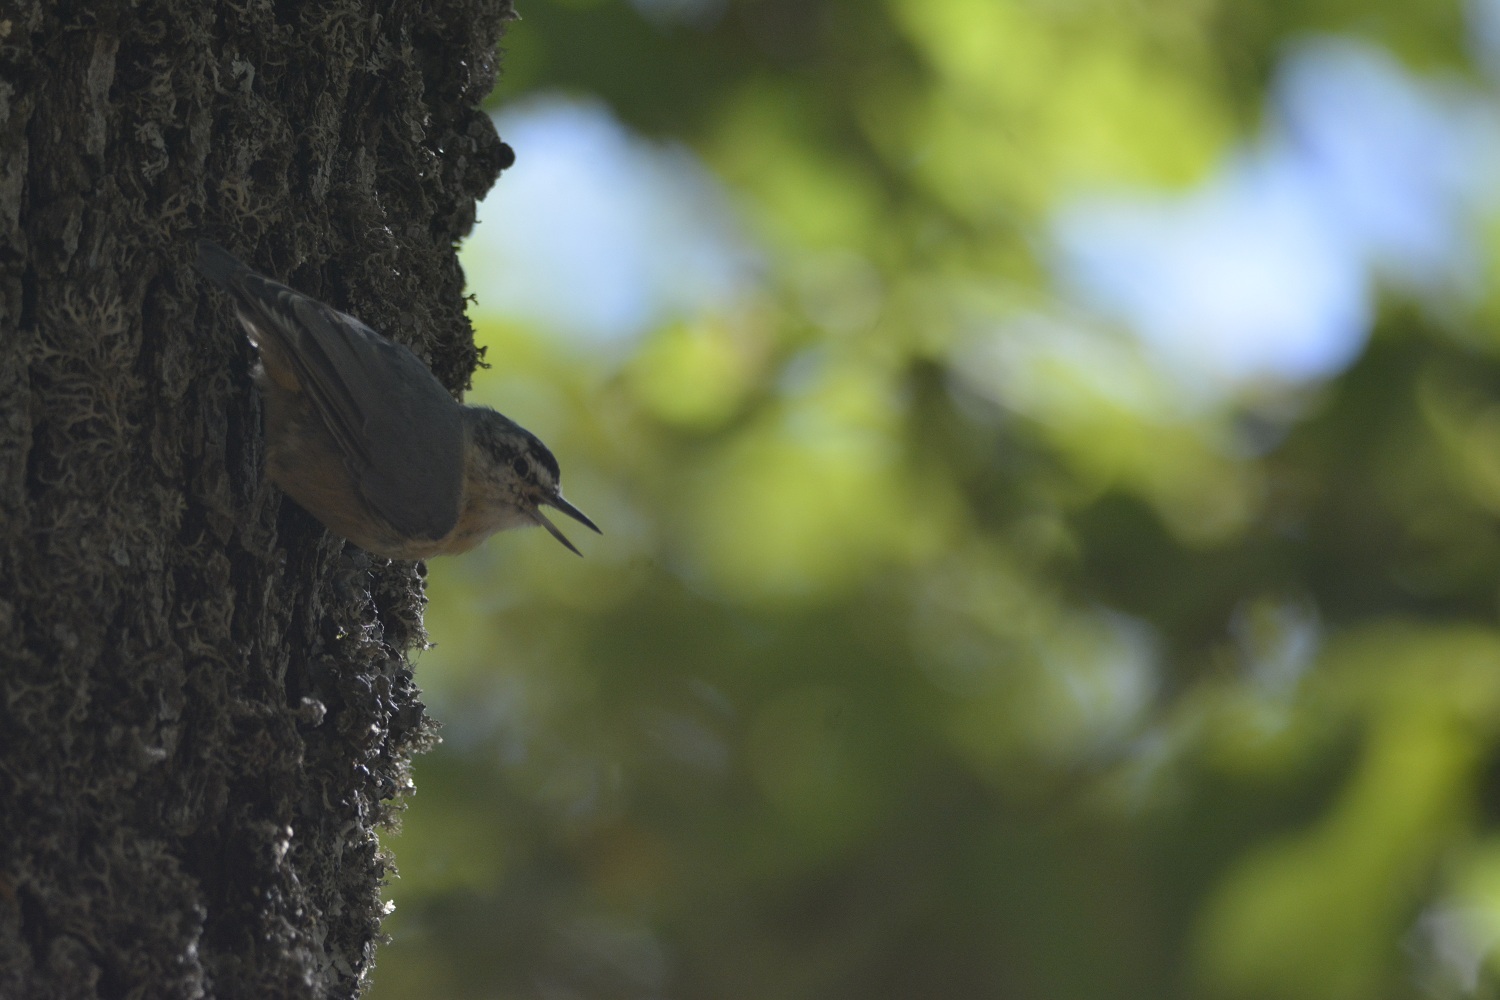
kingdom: Animalia
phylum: Chordata
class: Aves
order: Passeriformes
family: Sittidae
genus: Sitta
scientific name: Sitta ledanti
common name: Algerian nuthatch
